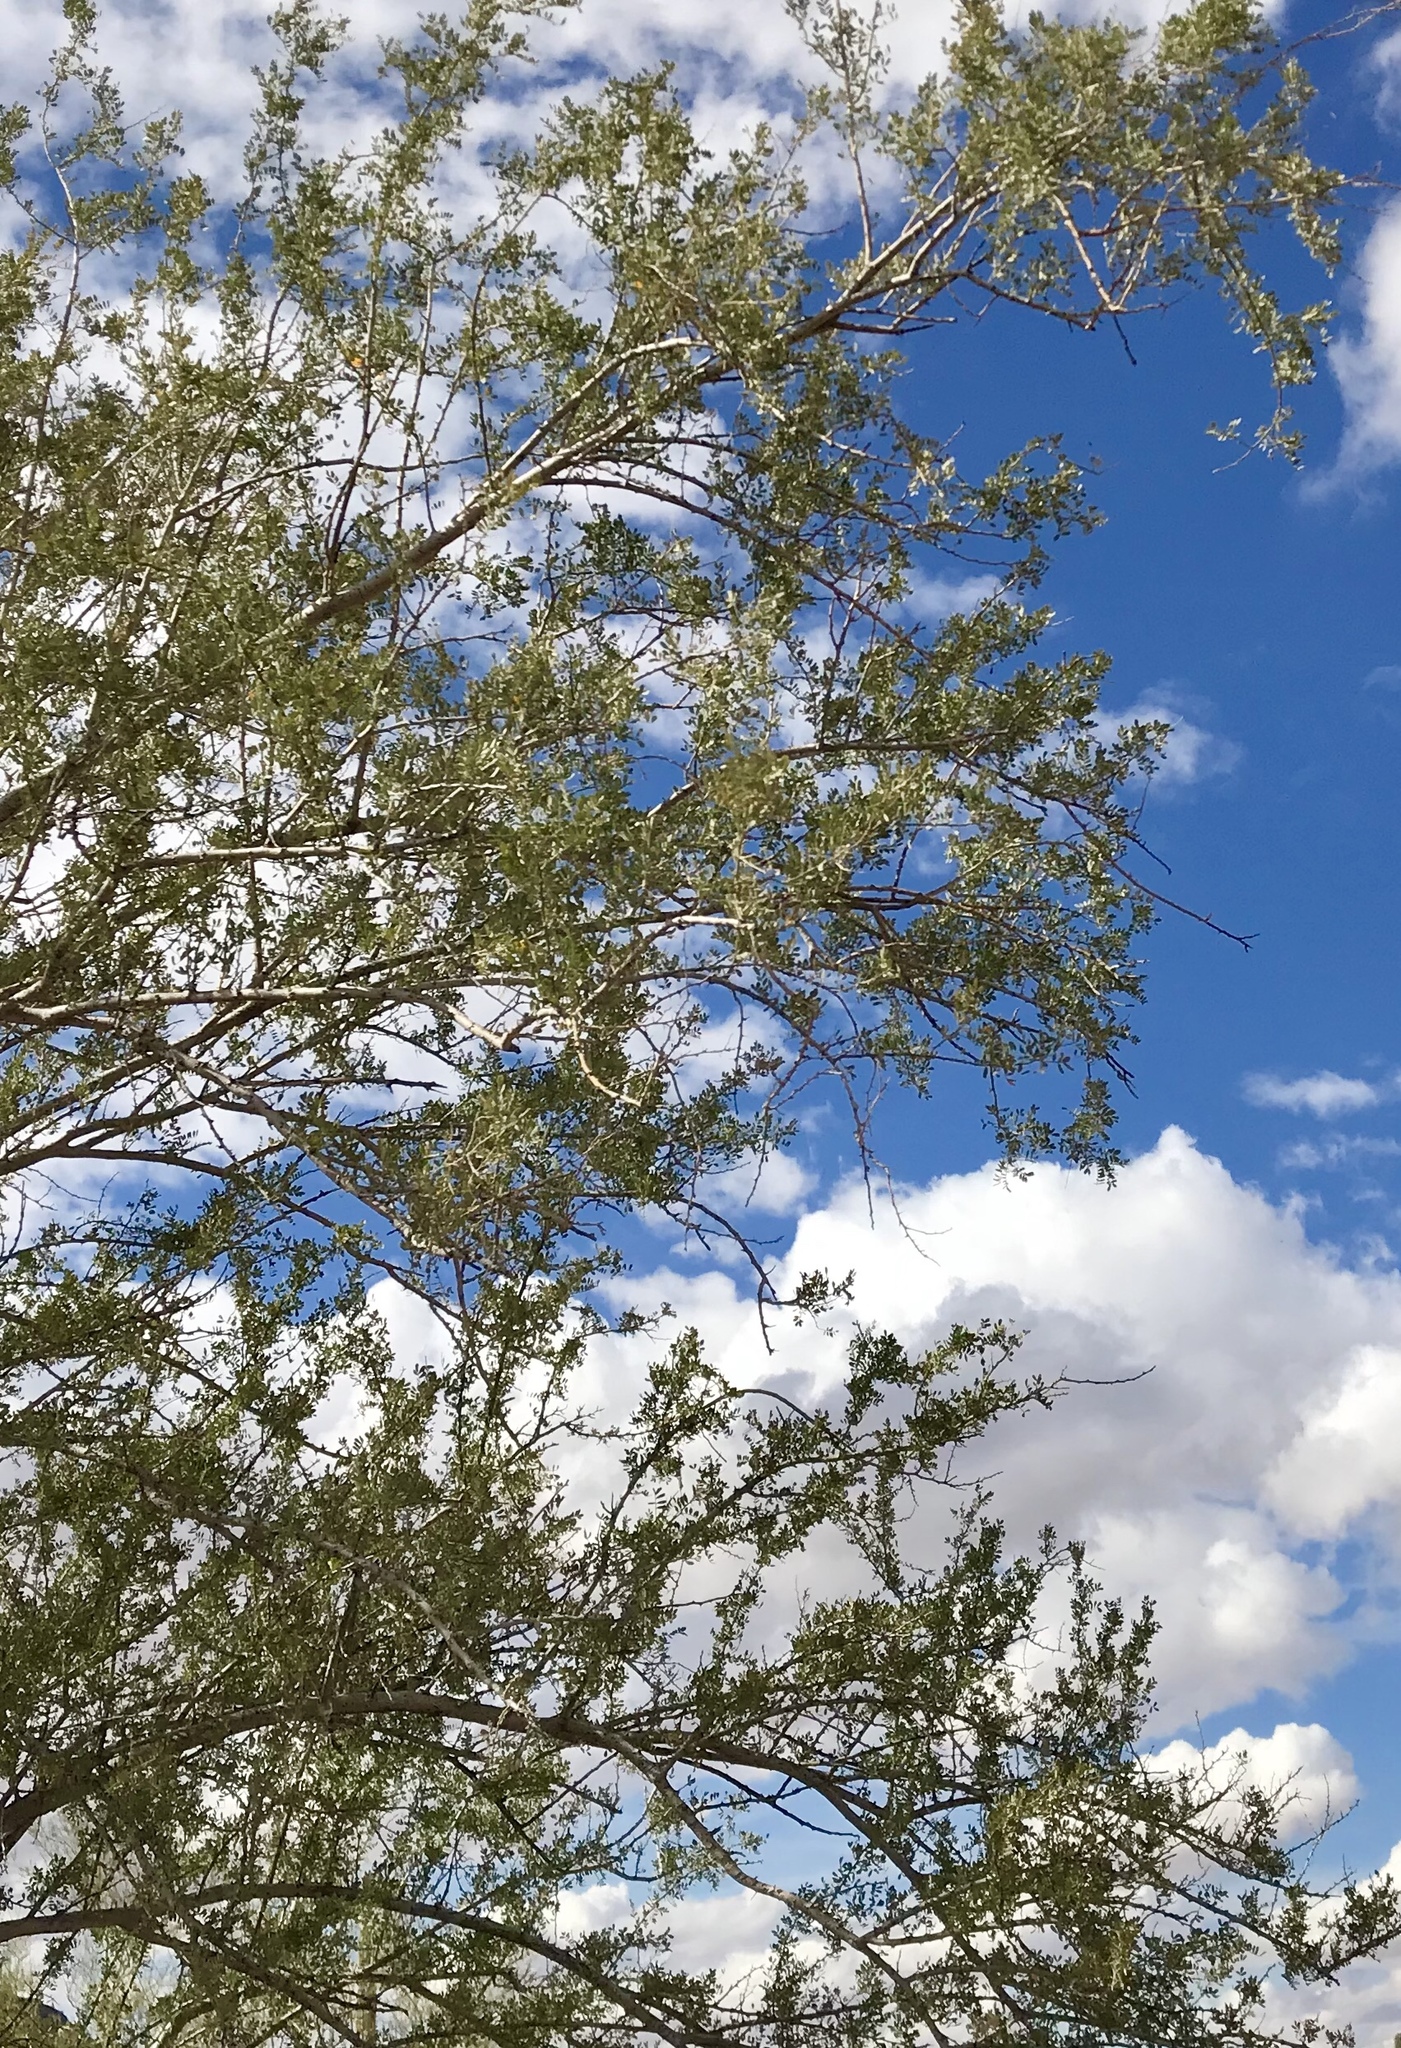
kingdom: Plantae
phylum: Tracheophyta
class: Magnoliopsida
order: Fabales
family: Fabaceae
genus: Olneya
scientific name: Olneya tesota
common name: Desert ironwood
